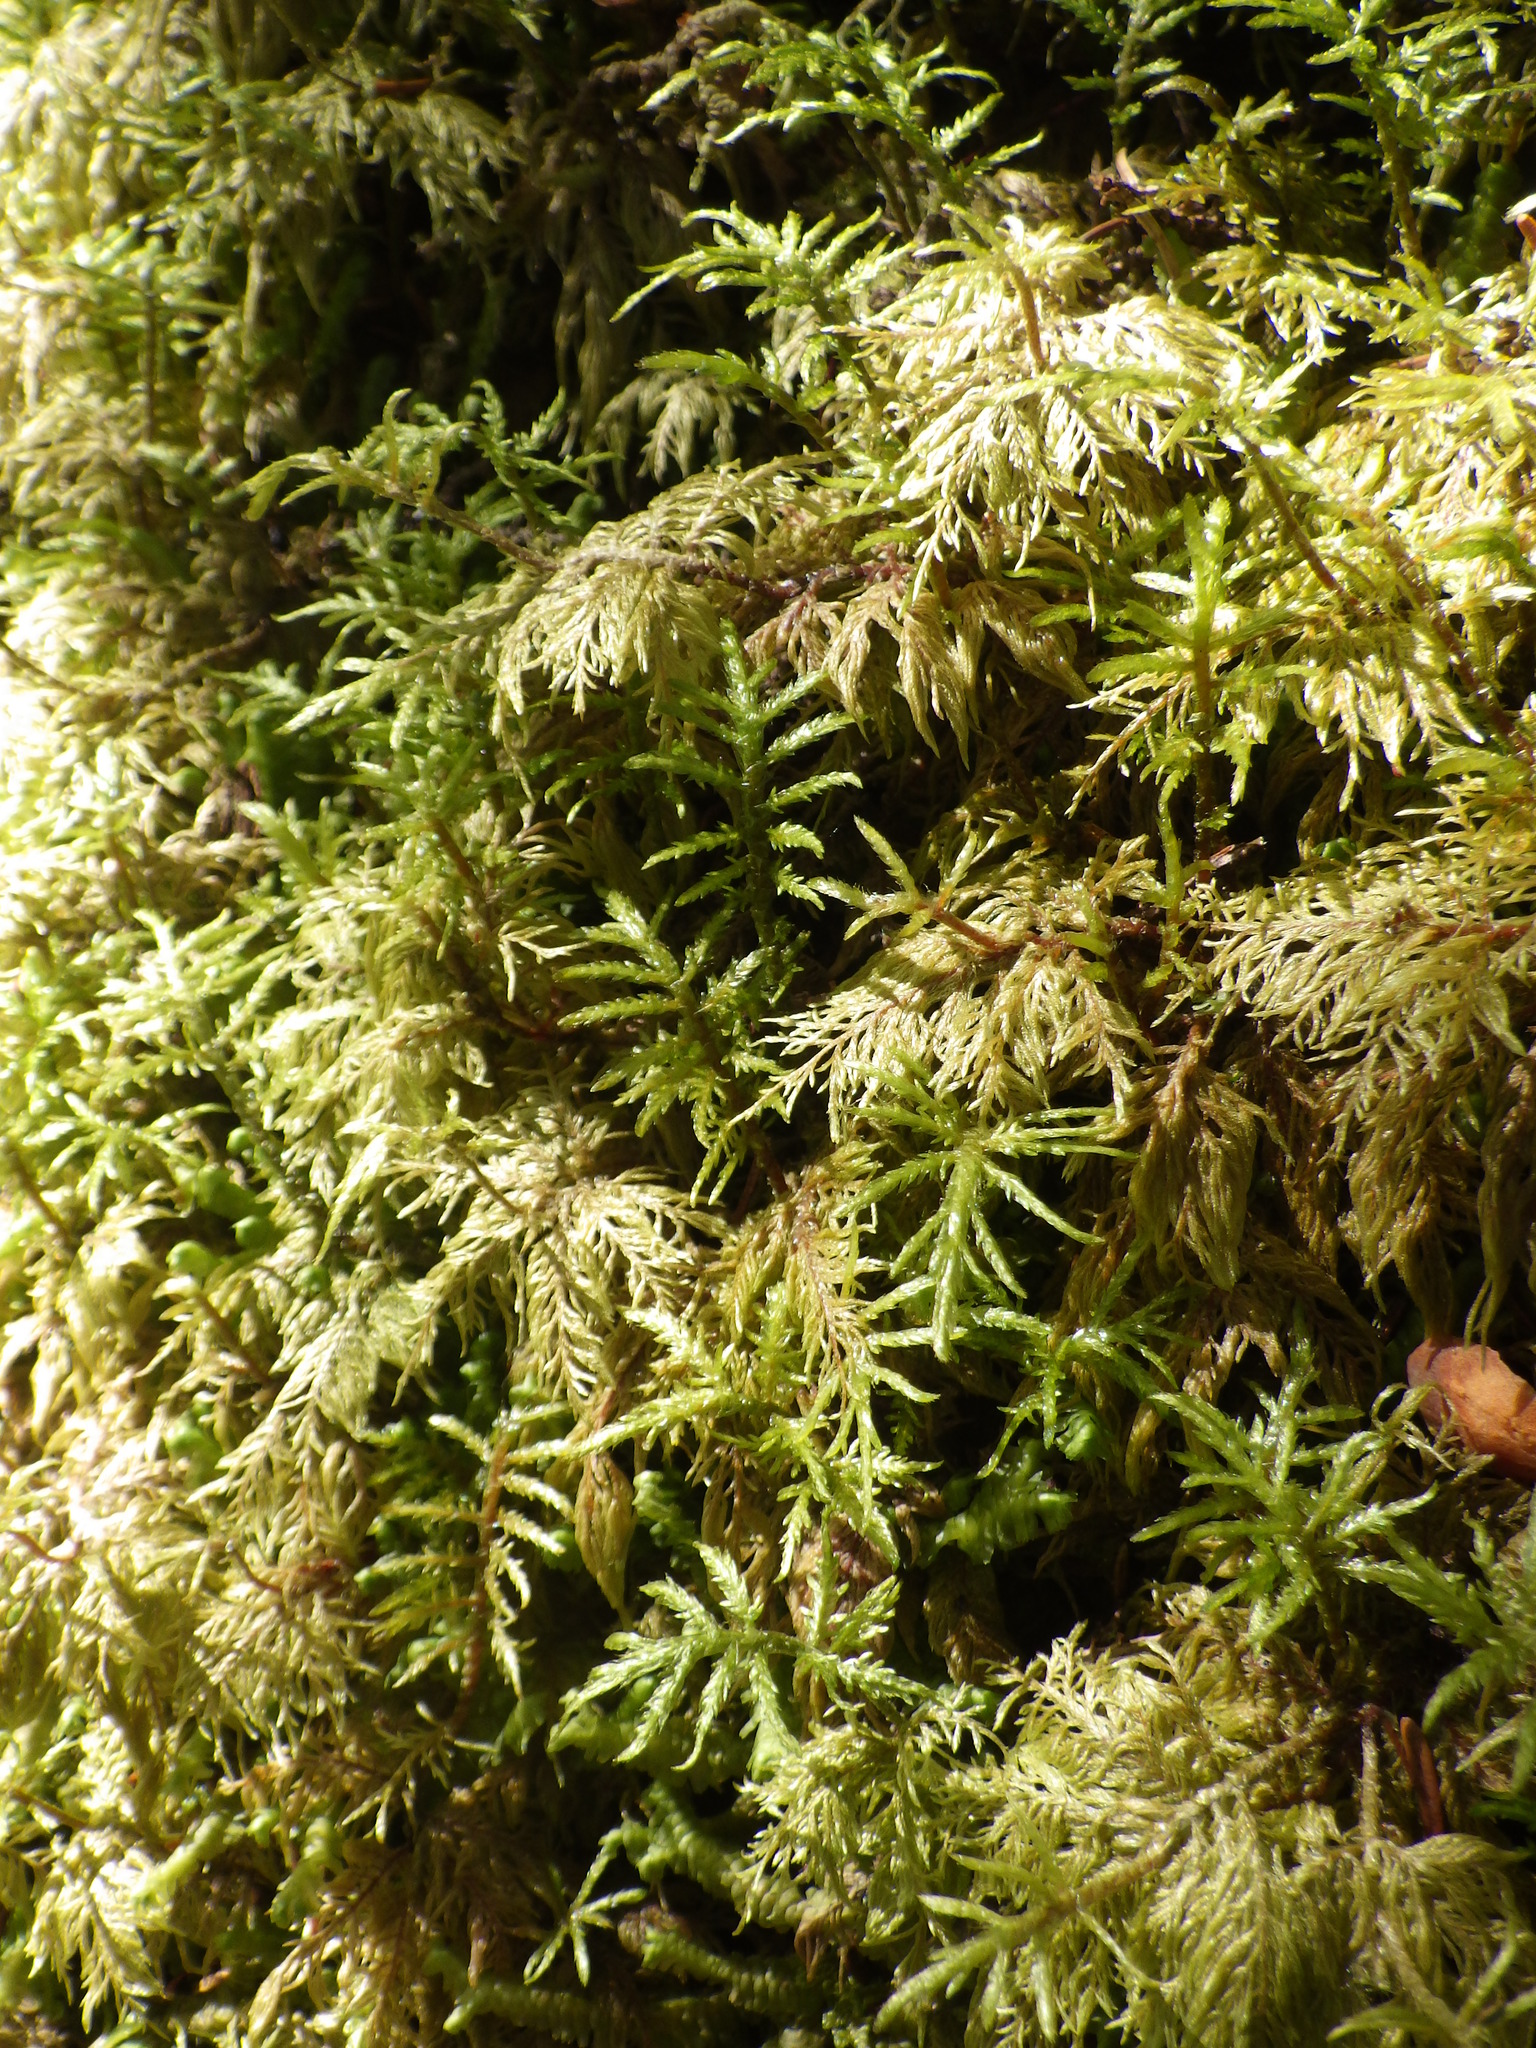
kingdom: Plantae
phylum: Bryophyta
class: Bryopsida
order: Hypnales
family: Hylocomiaceae
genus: Hylocomium
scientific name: Hylocomium splendens
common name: Stairstep moss
